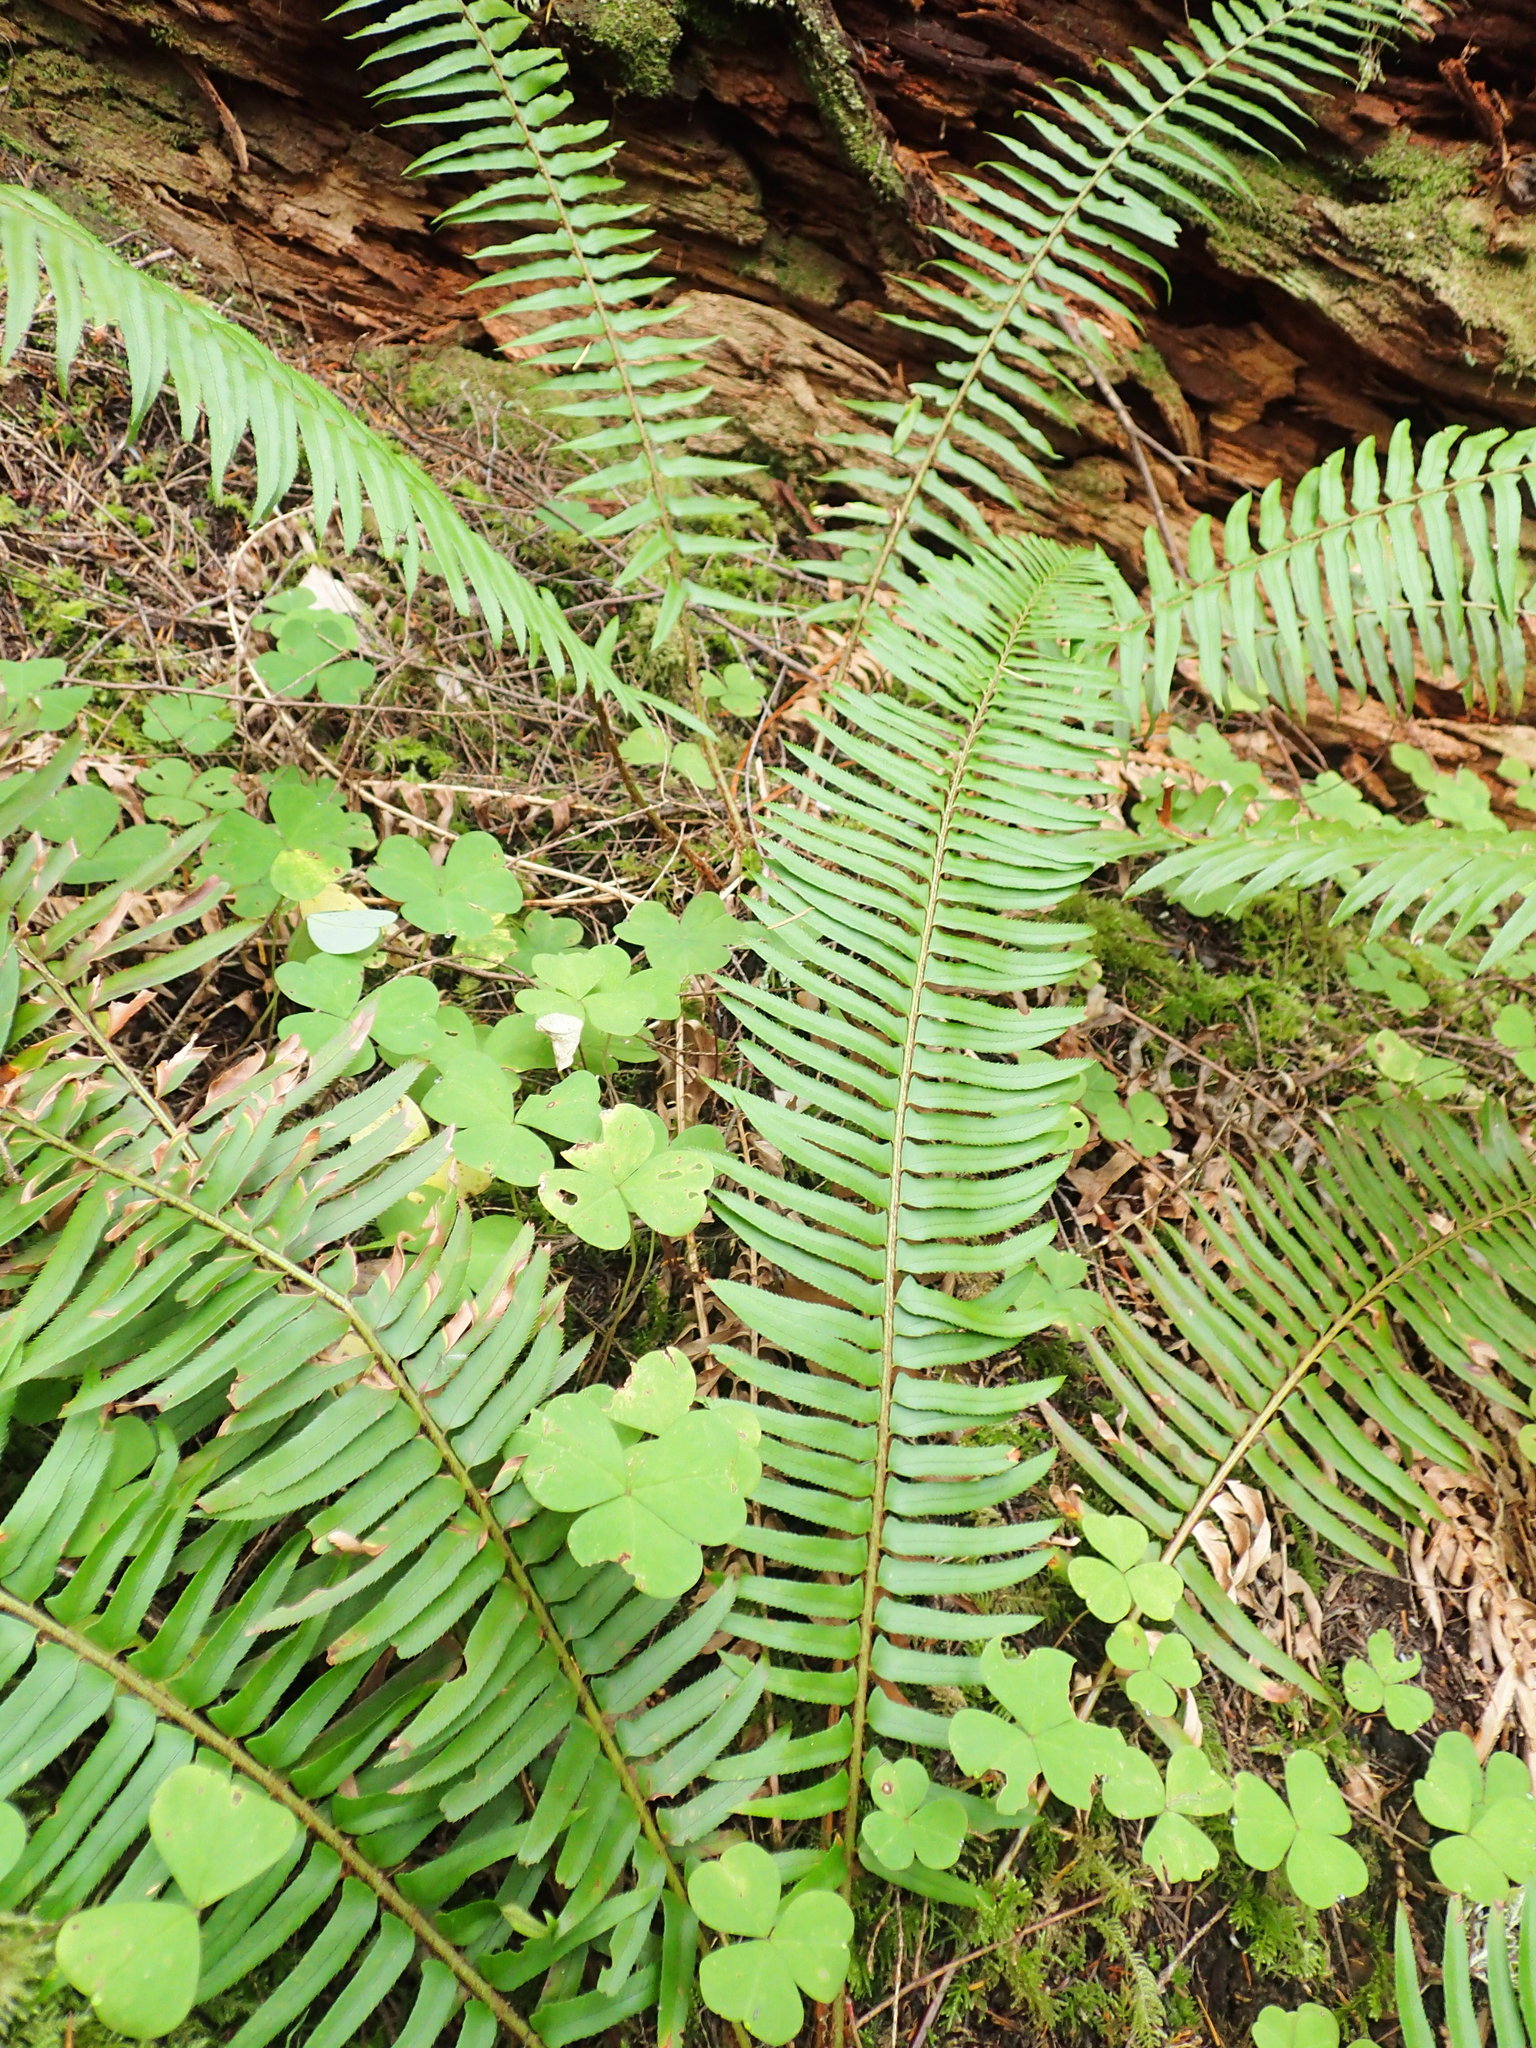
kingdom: Plantae
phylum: Tracheophyta
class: Polypodiopsida
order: Polypodiales
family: Dryopteridaceae
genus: Polystichum
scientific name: Polystichum munitum
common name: Western sword-fern
